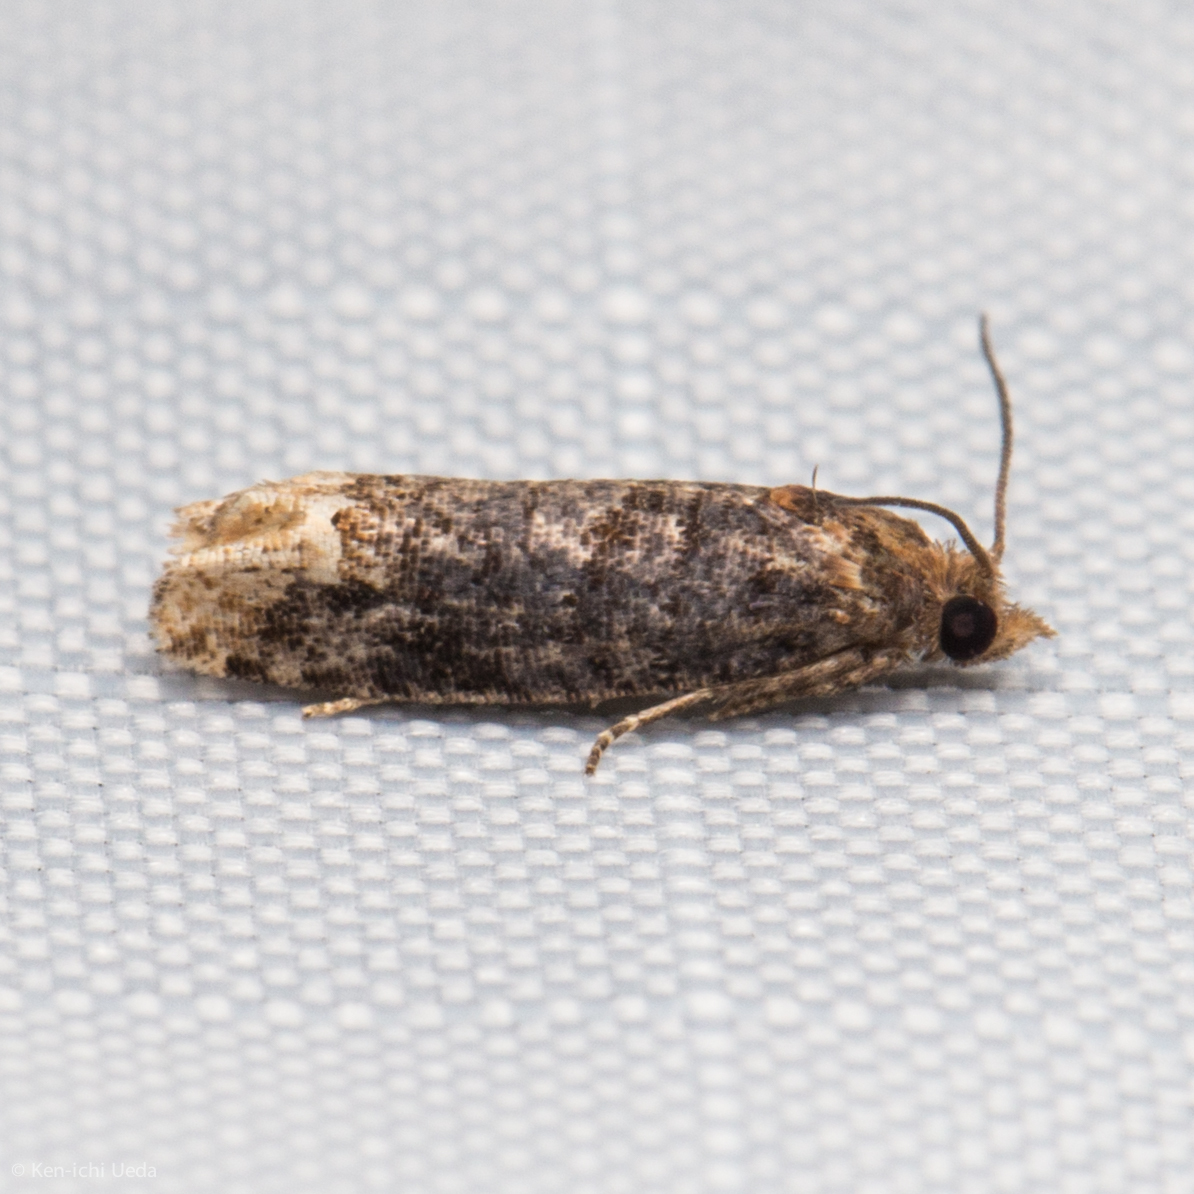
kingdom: Animalia
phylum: Arthropoda
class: Insecta
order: Lepidoptera
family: Tortricidae
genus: Eucosma
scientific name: Eucosma ochroterminana
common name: Buff-tipped eucosma moth
